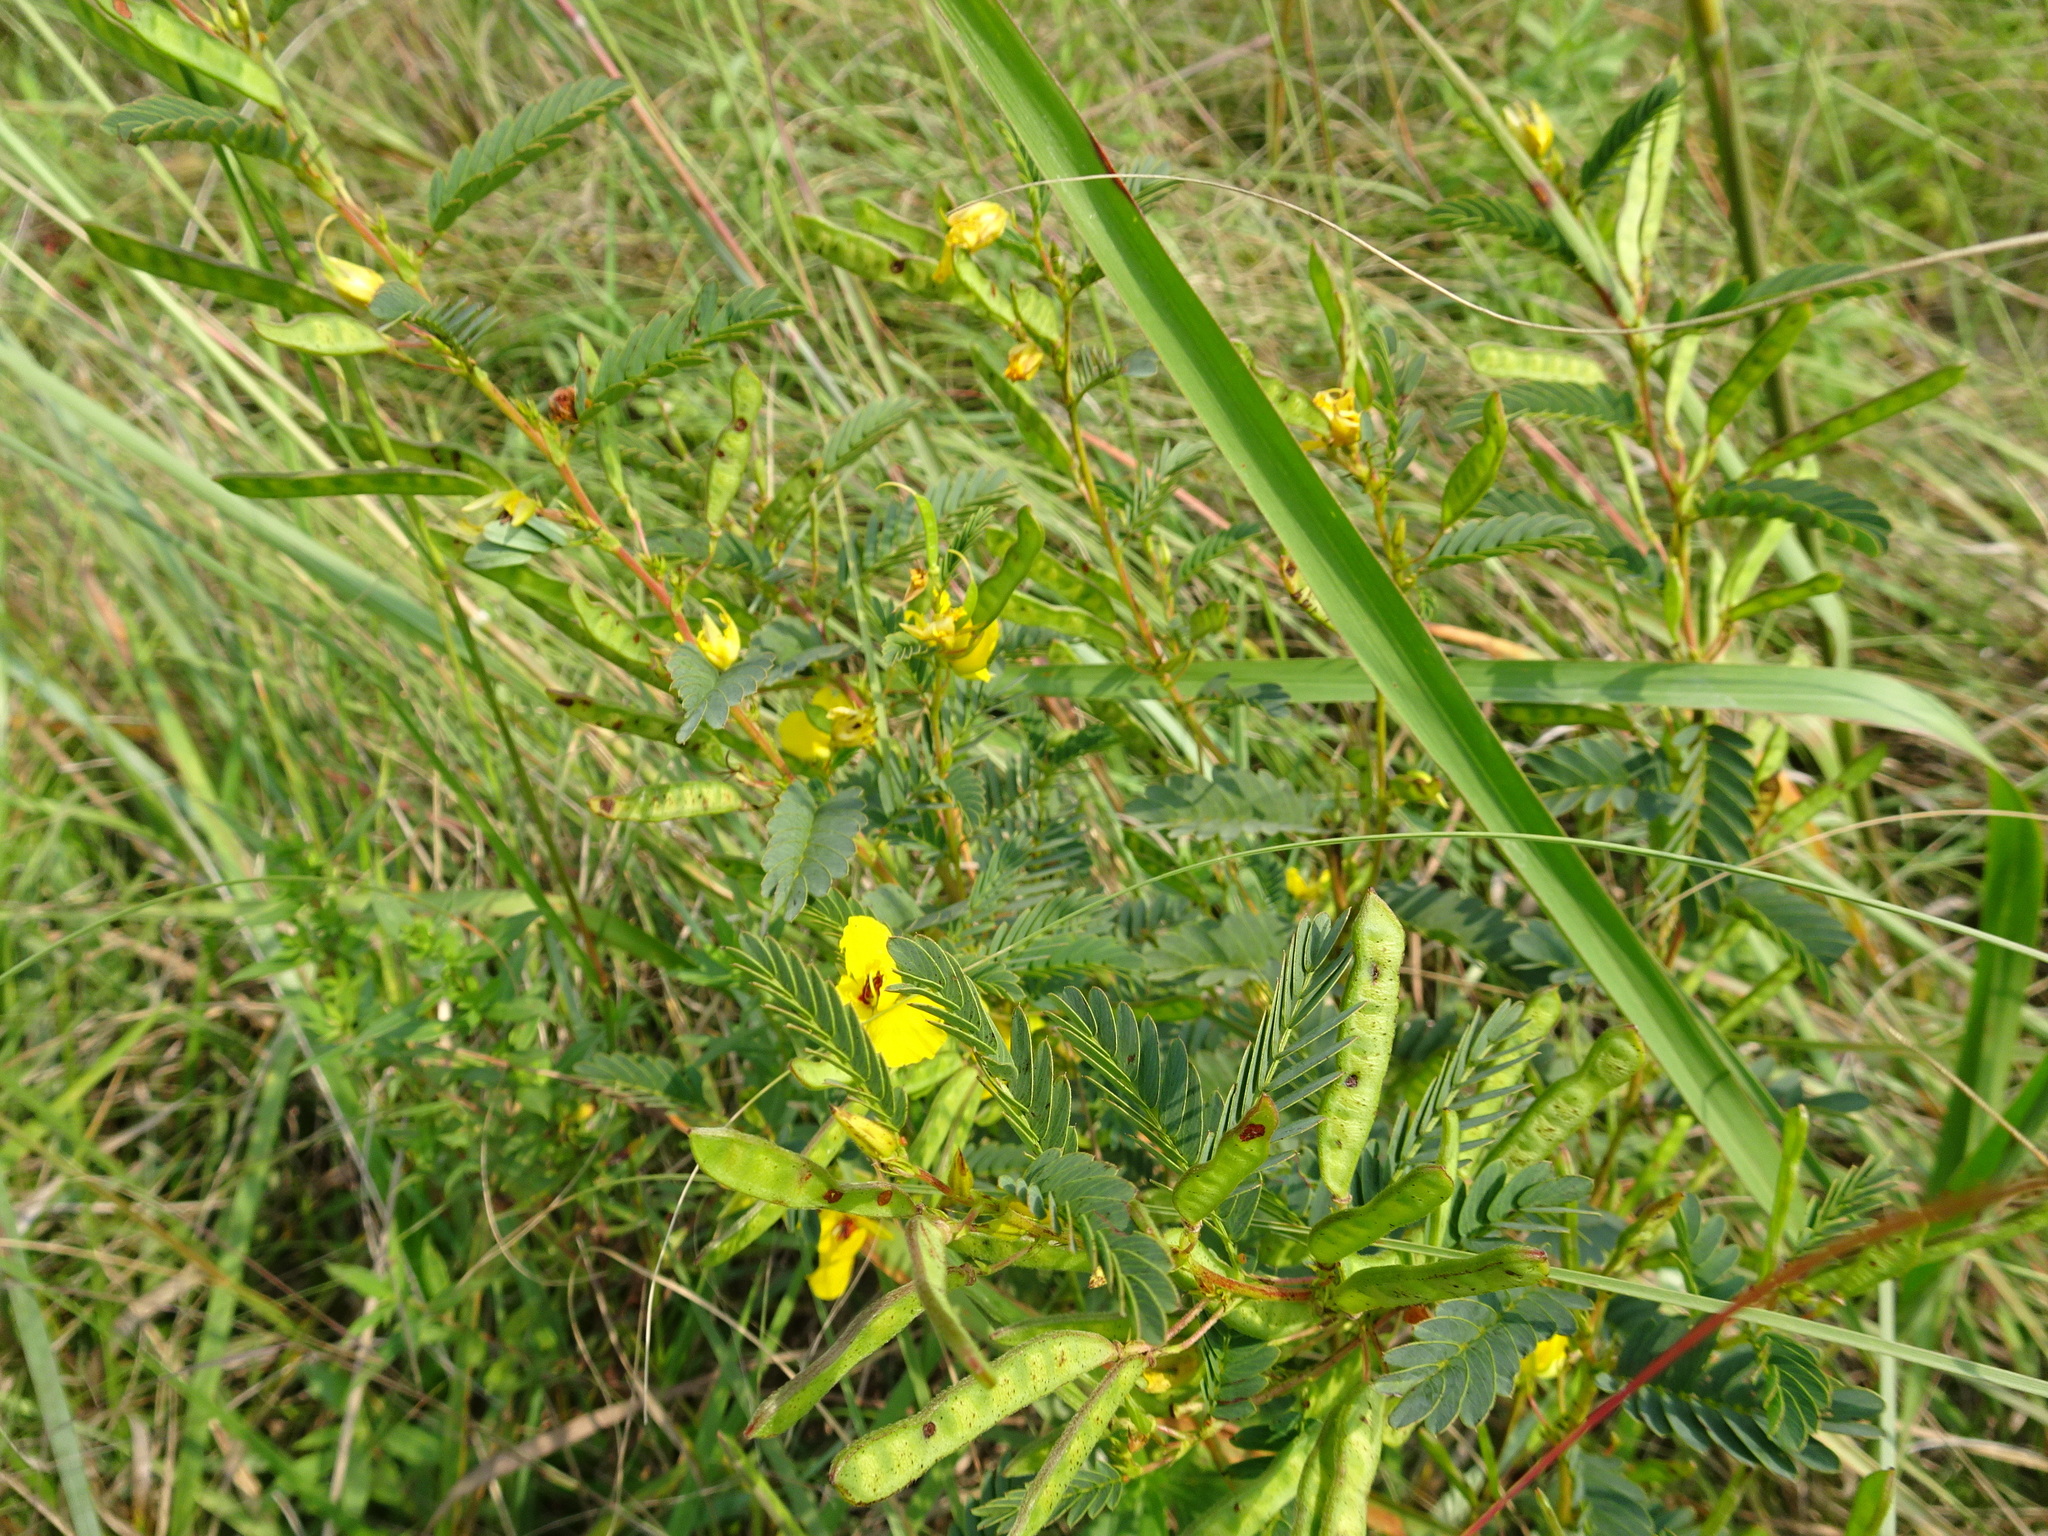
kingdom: Plantae
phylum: Tracheophyta
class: Magnoliopsida
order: Fabales
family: Fabaceae
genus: Chamaecrista
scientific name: Chamaecrista fasciculata
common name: Golden cassia
